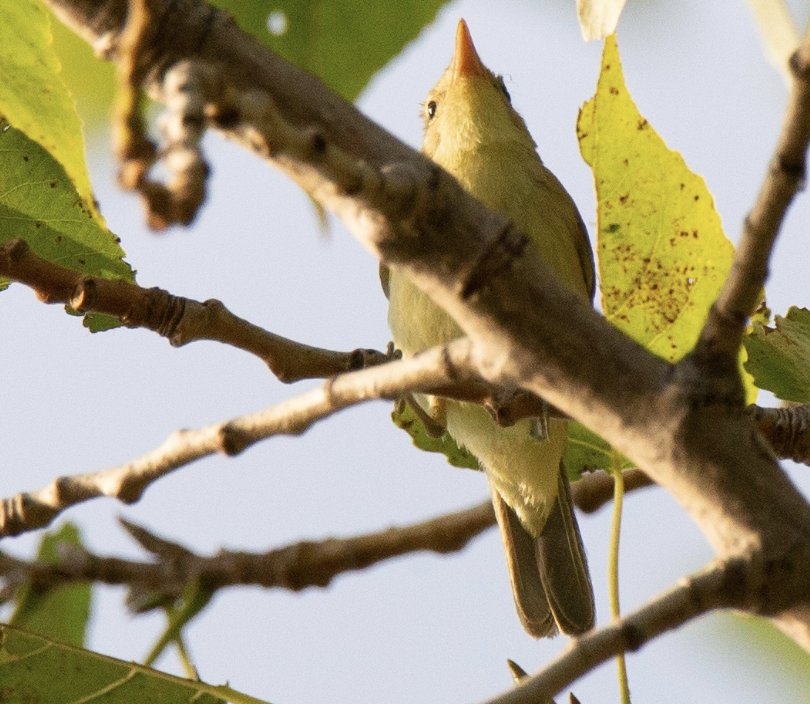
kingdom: Animalia
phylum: Chordata
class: Aves
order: Passeriformes
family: Acrocephalidae
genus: Hippolais
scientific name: Hippolais icterina
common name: Icterine warbler
